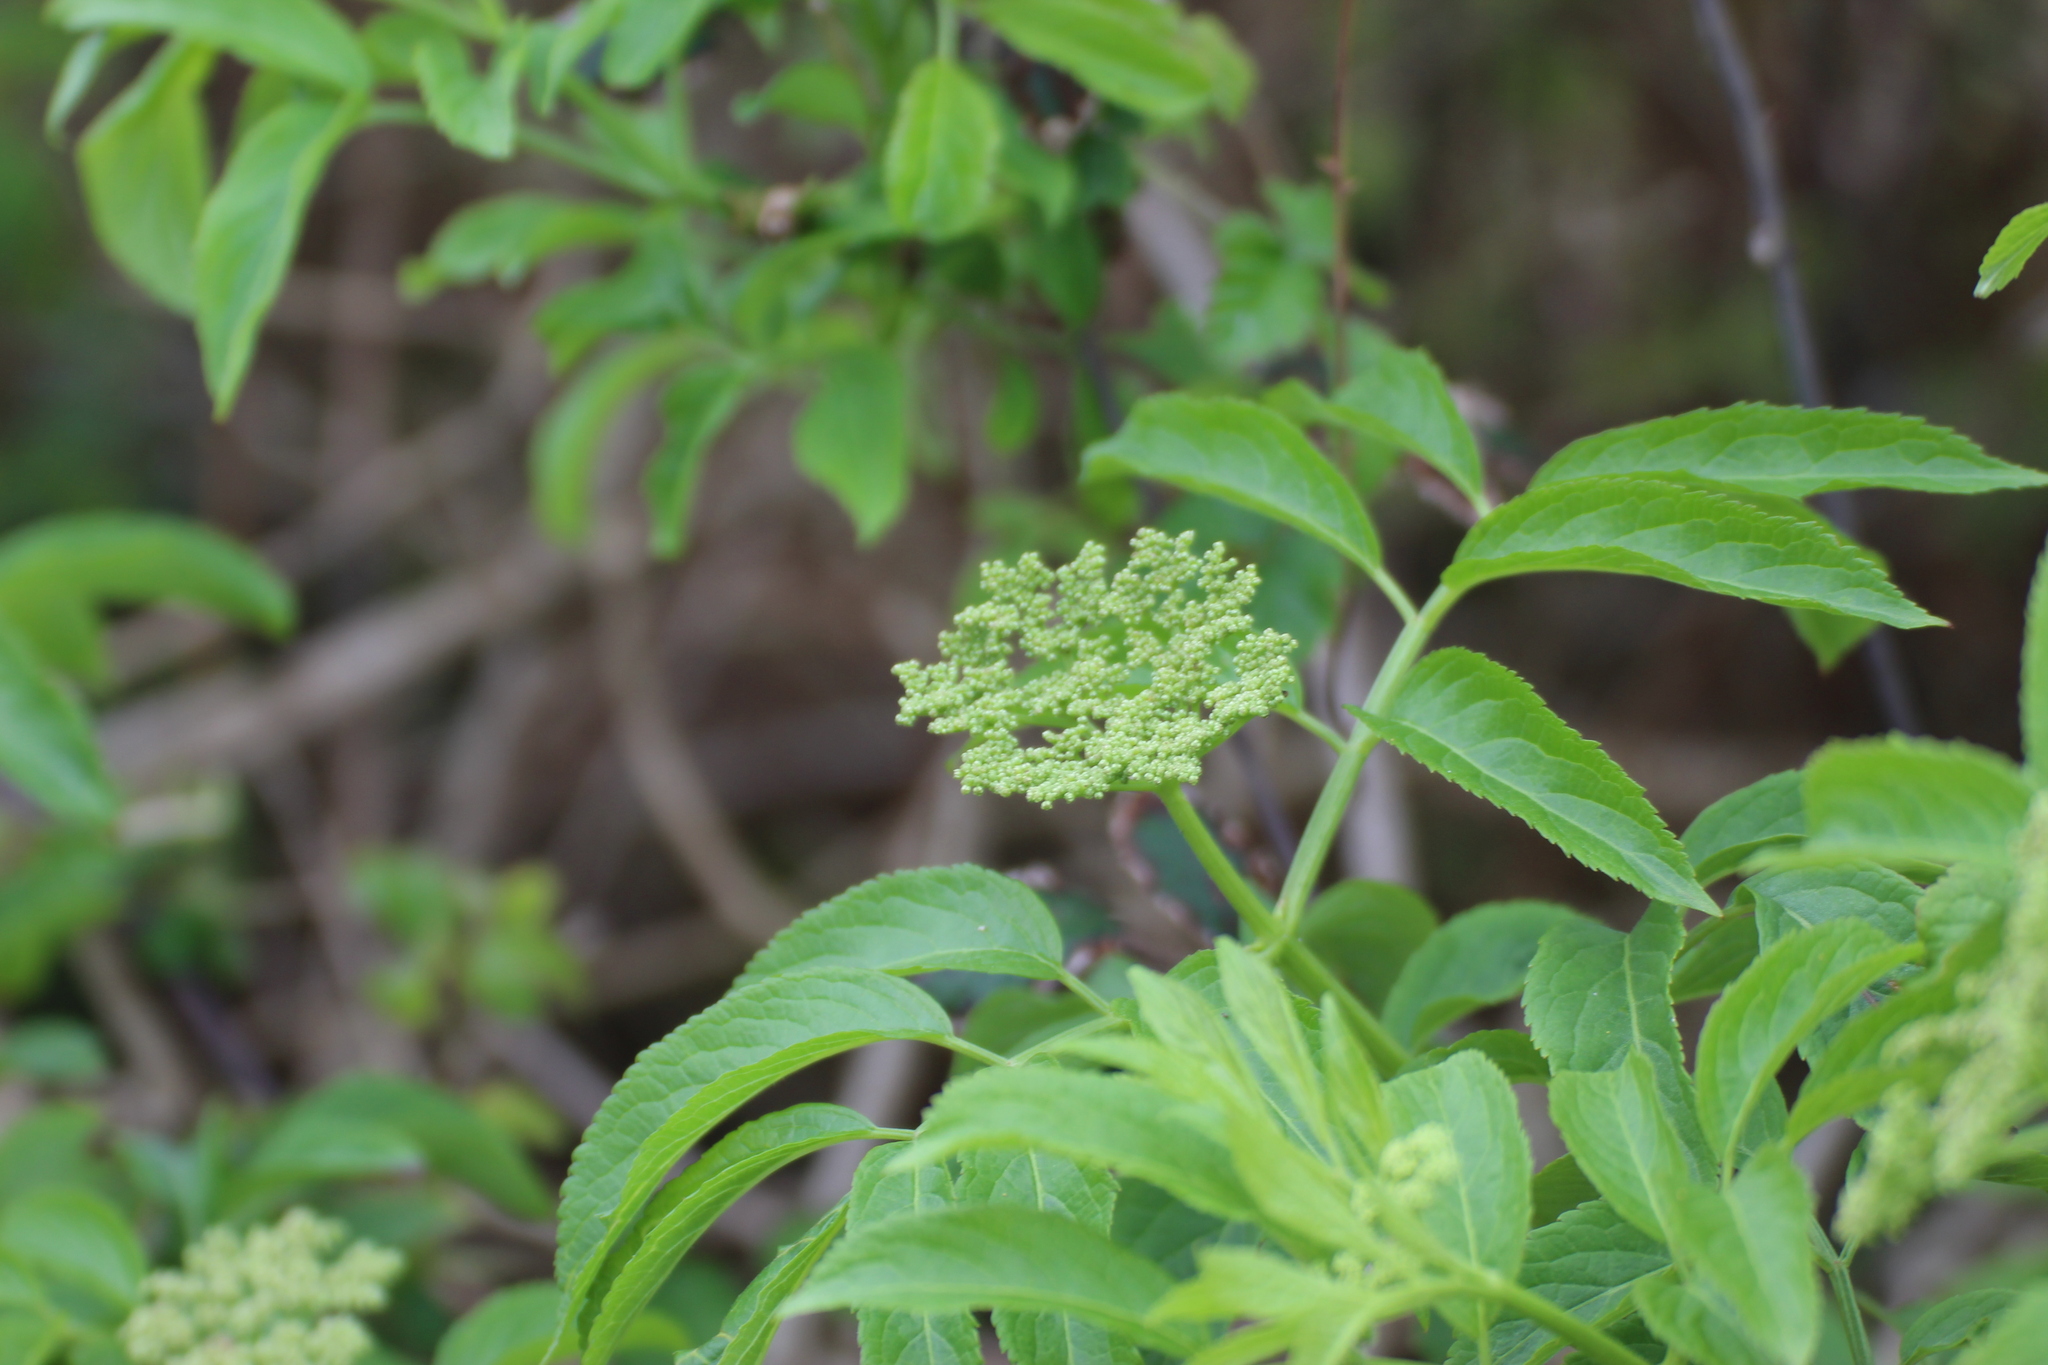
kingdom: Plantae
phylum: Tracheophyta
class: Magnoliopsida
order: Dipsacales
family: Viburnaceae
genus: Sambucus
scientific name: Sambucus nigra
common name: Elder
